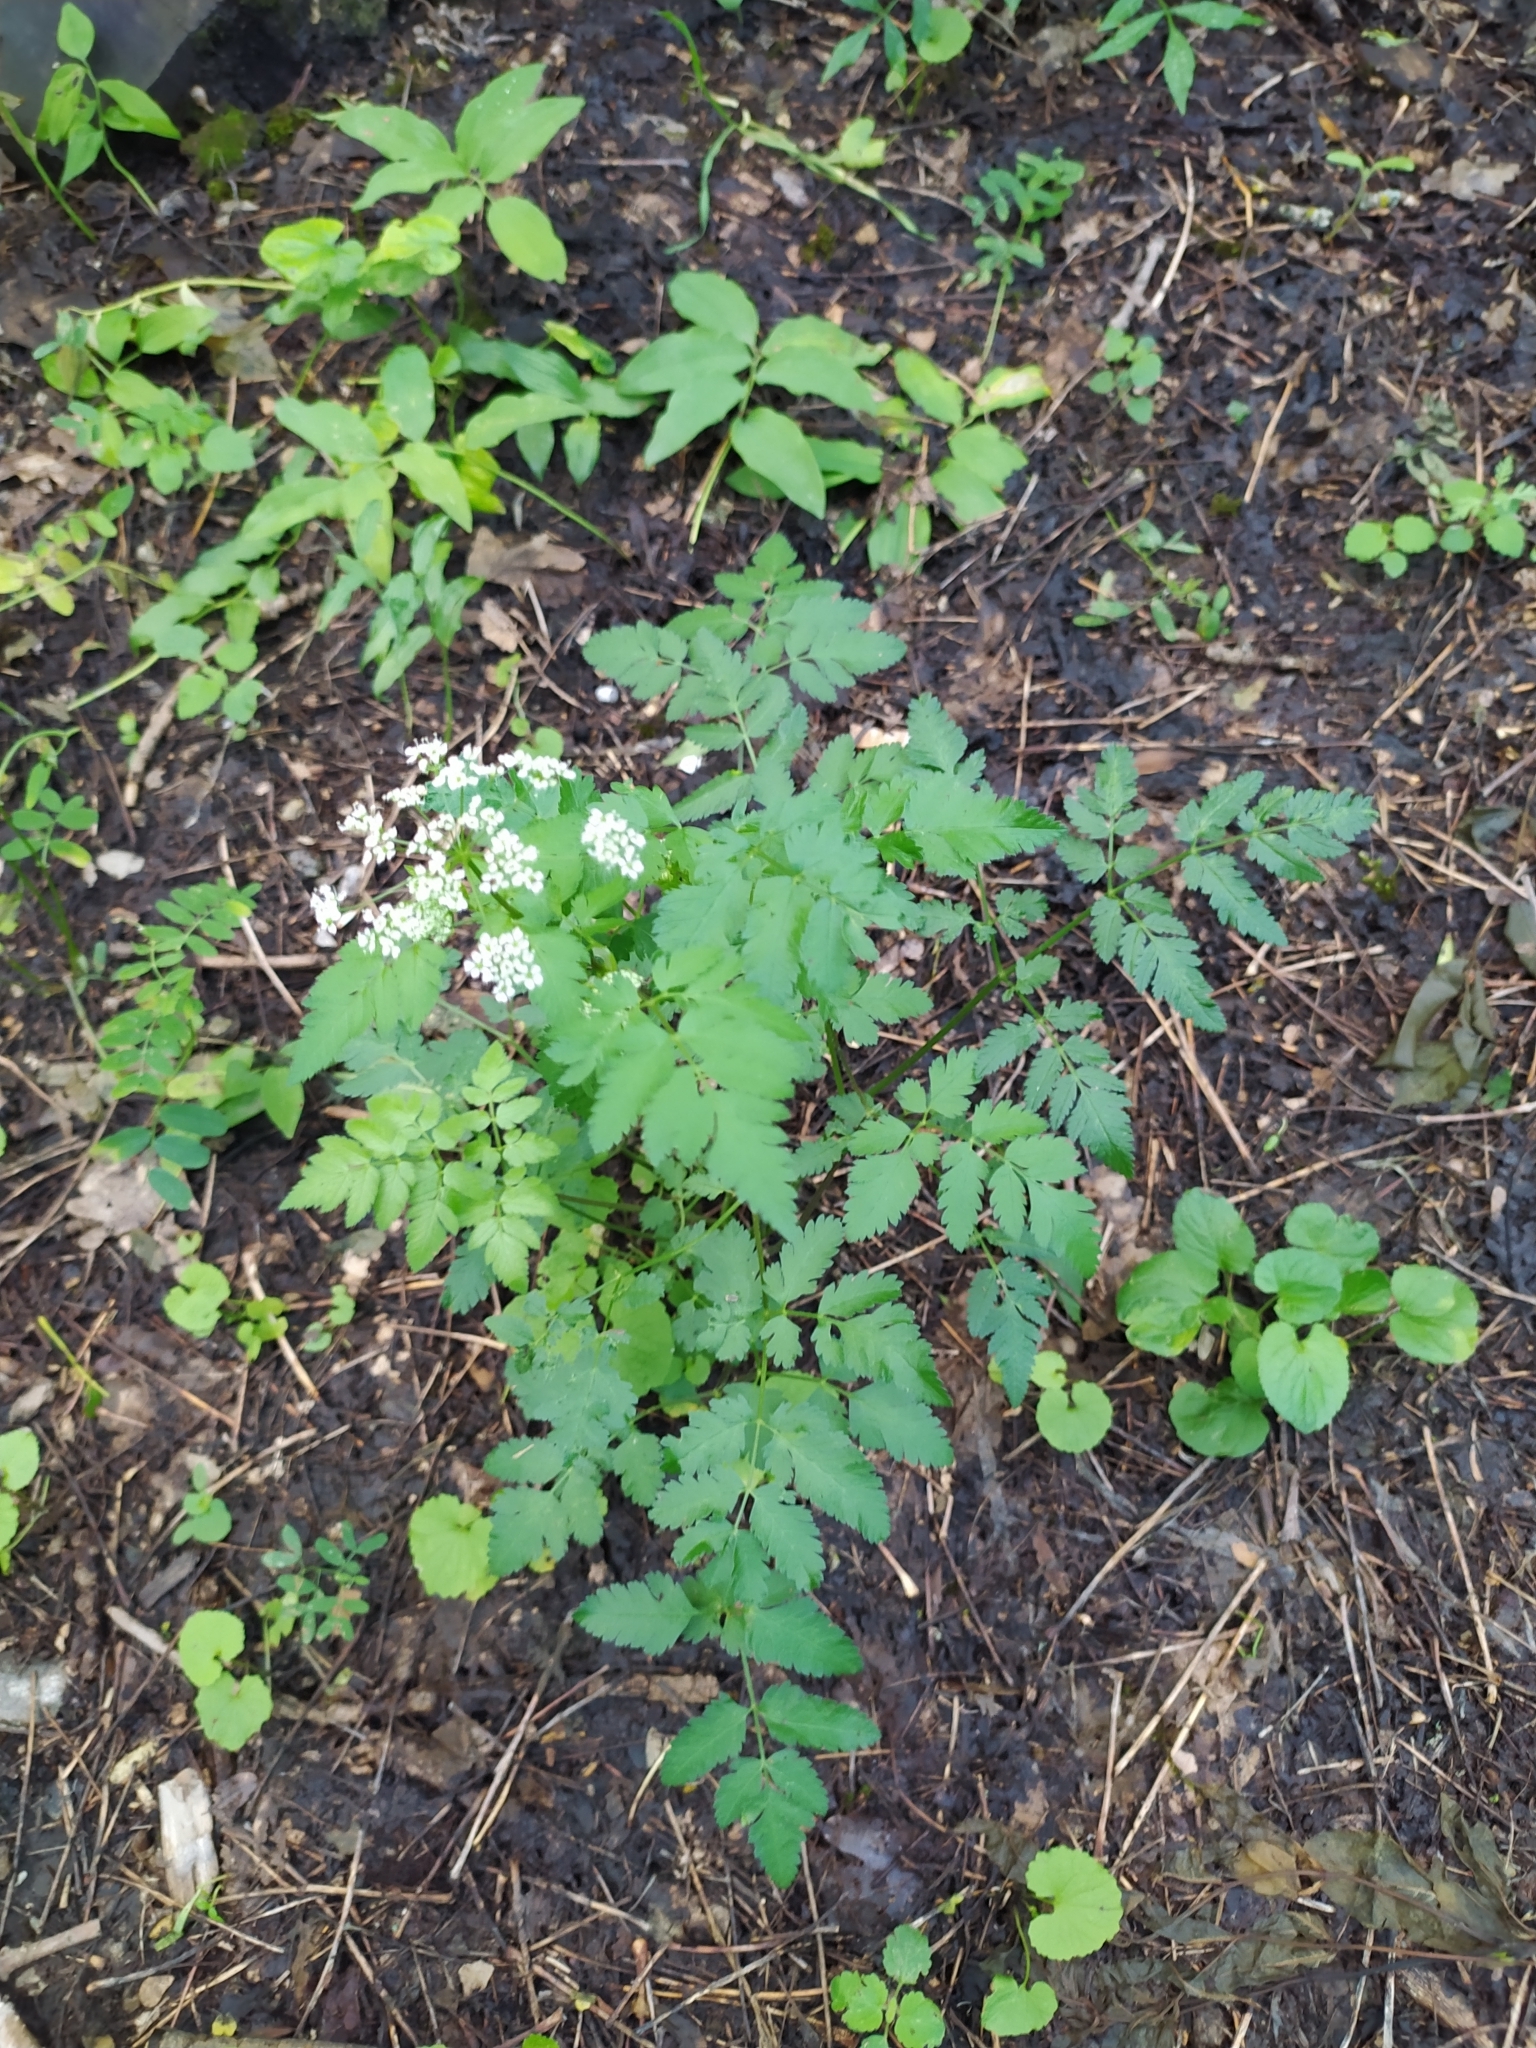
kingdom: Plantae
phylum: Tracheophyta
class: Magnoliopsida
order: Apiales
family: Apiaceae
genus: Conium
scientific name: Conium maculatum
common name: Hemlock
